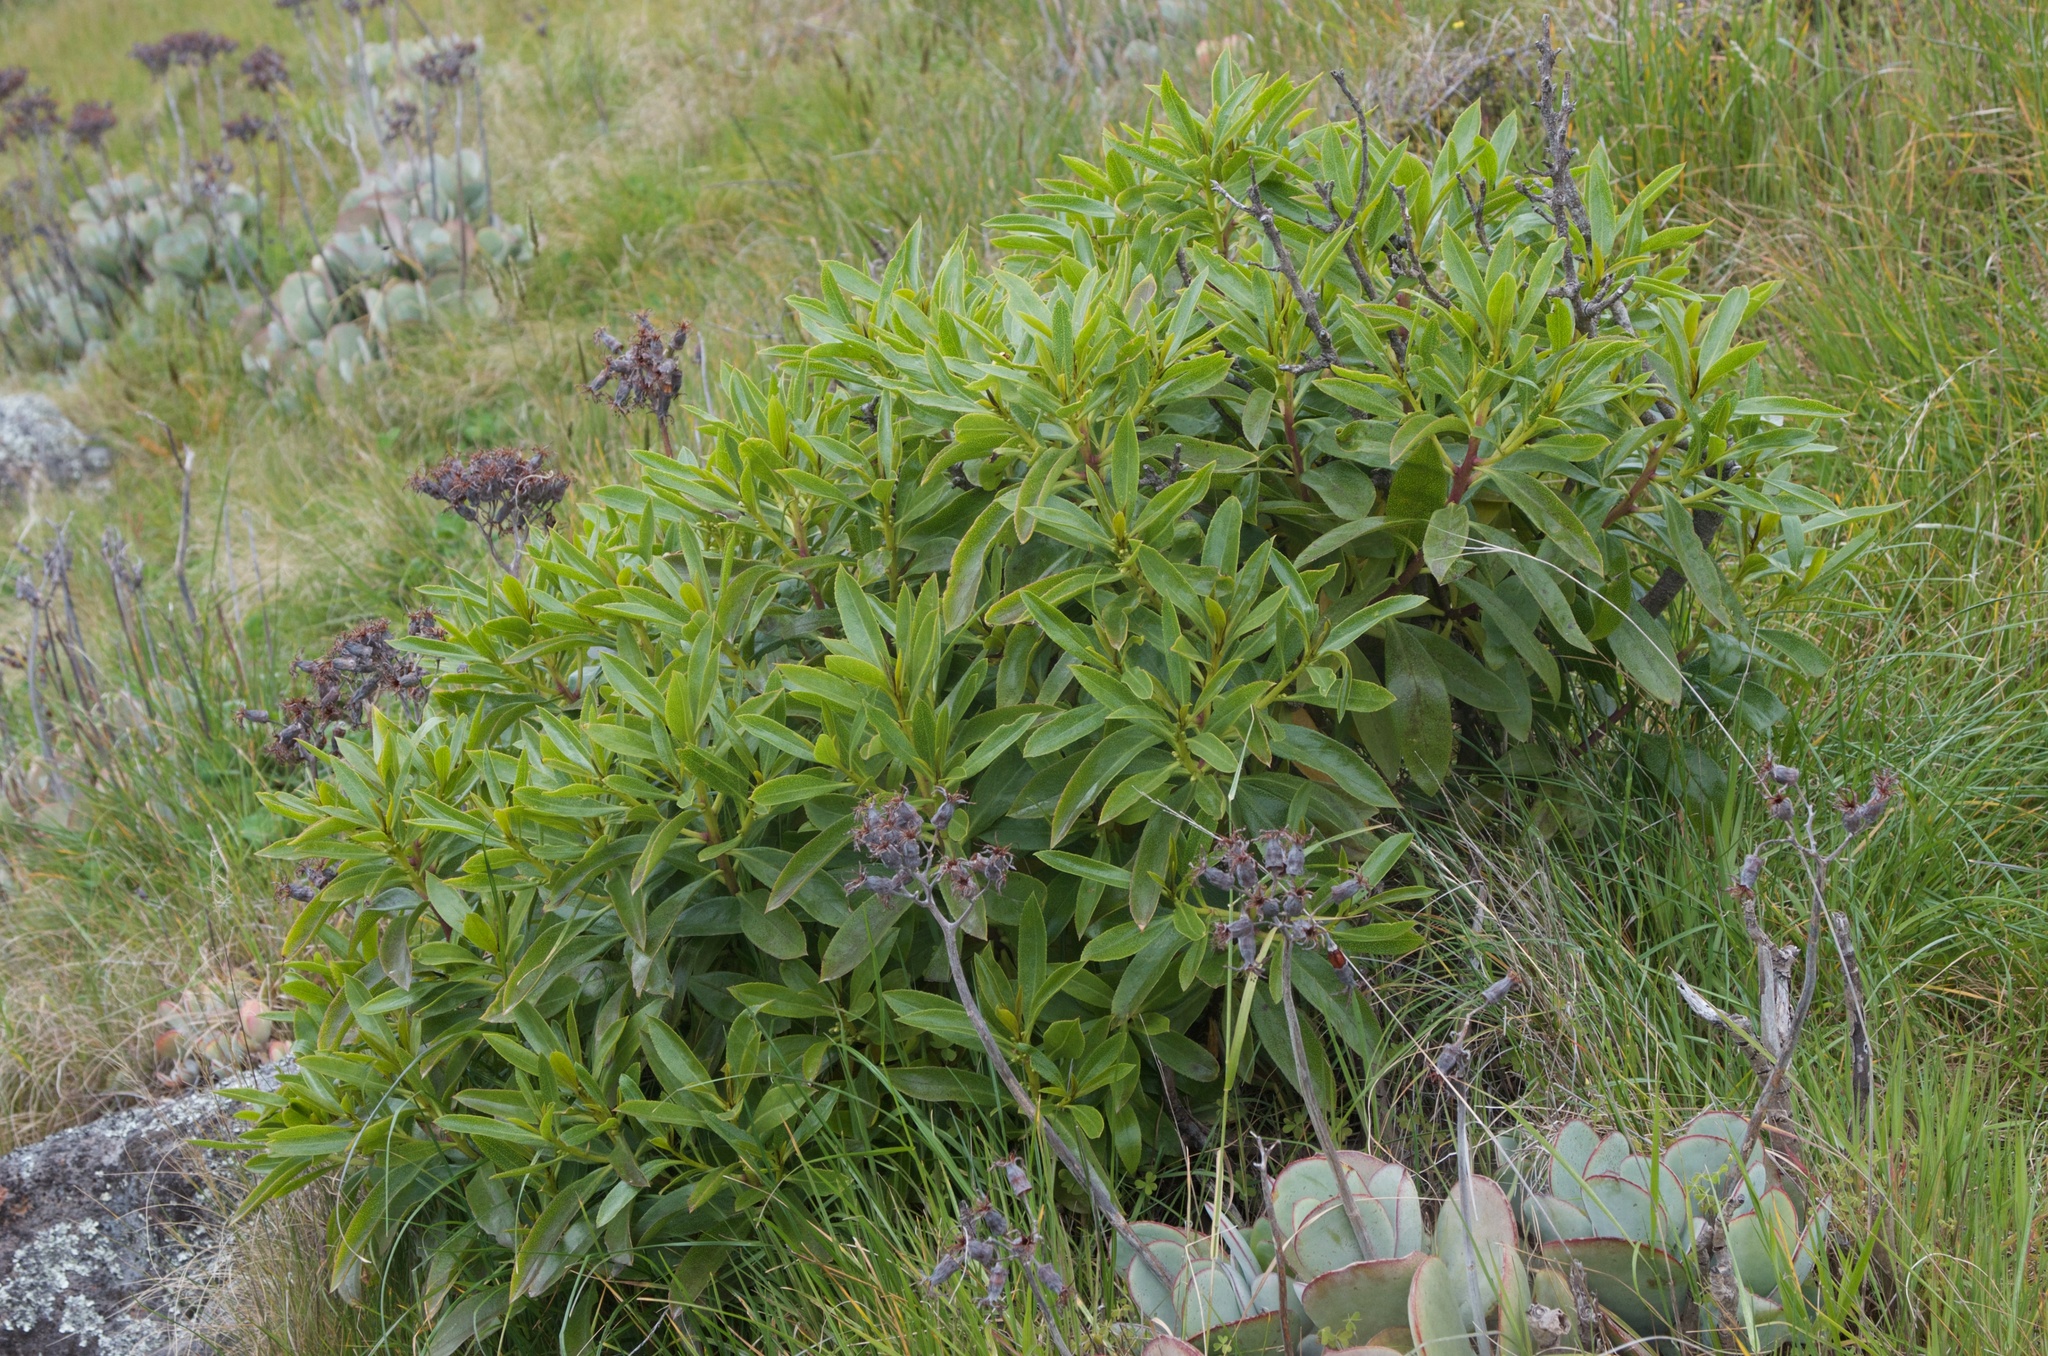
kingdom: Plantae
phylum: Tracheophyta
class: Magnoliopsida
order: Lamiales
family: Scrophulariaceae
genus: Myoporum
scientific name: Myoporum laetum
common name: Ngaio tree
